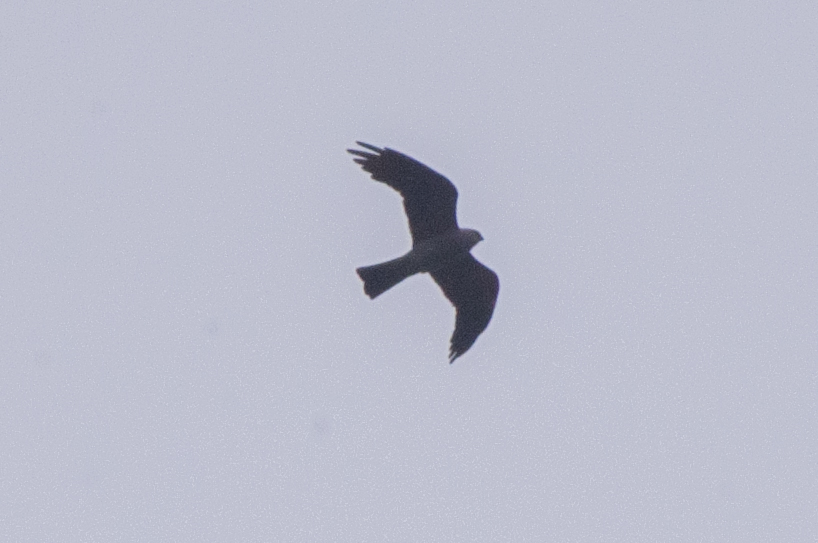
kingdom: Animalia
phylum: Chordata
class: Aves
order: Accipitriformes
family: Accipitridae
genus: Ictinia
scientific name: Ictinia mississippiensis
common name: Mississippi kite
